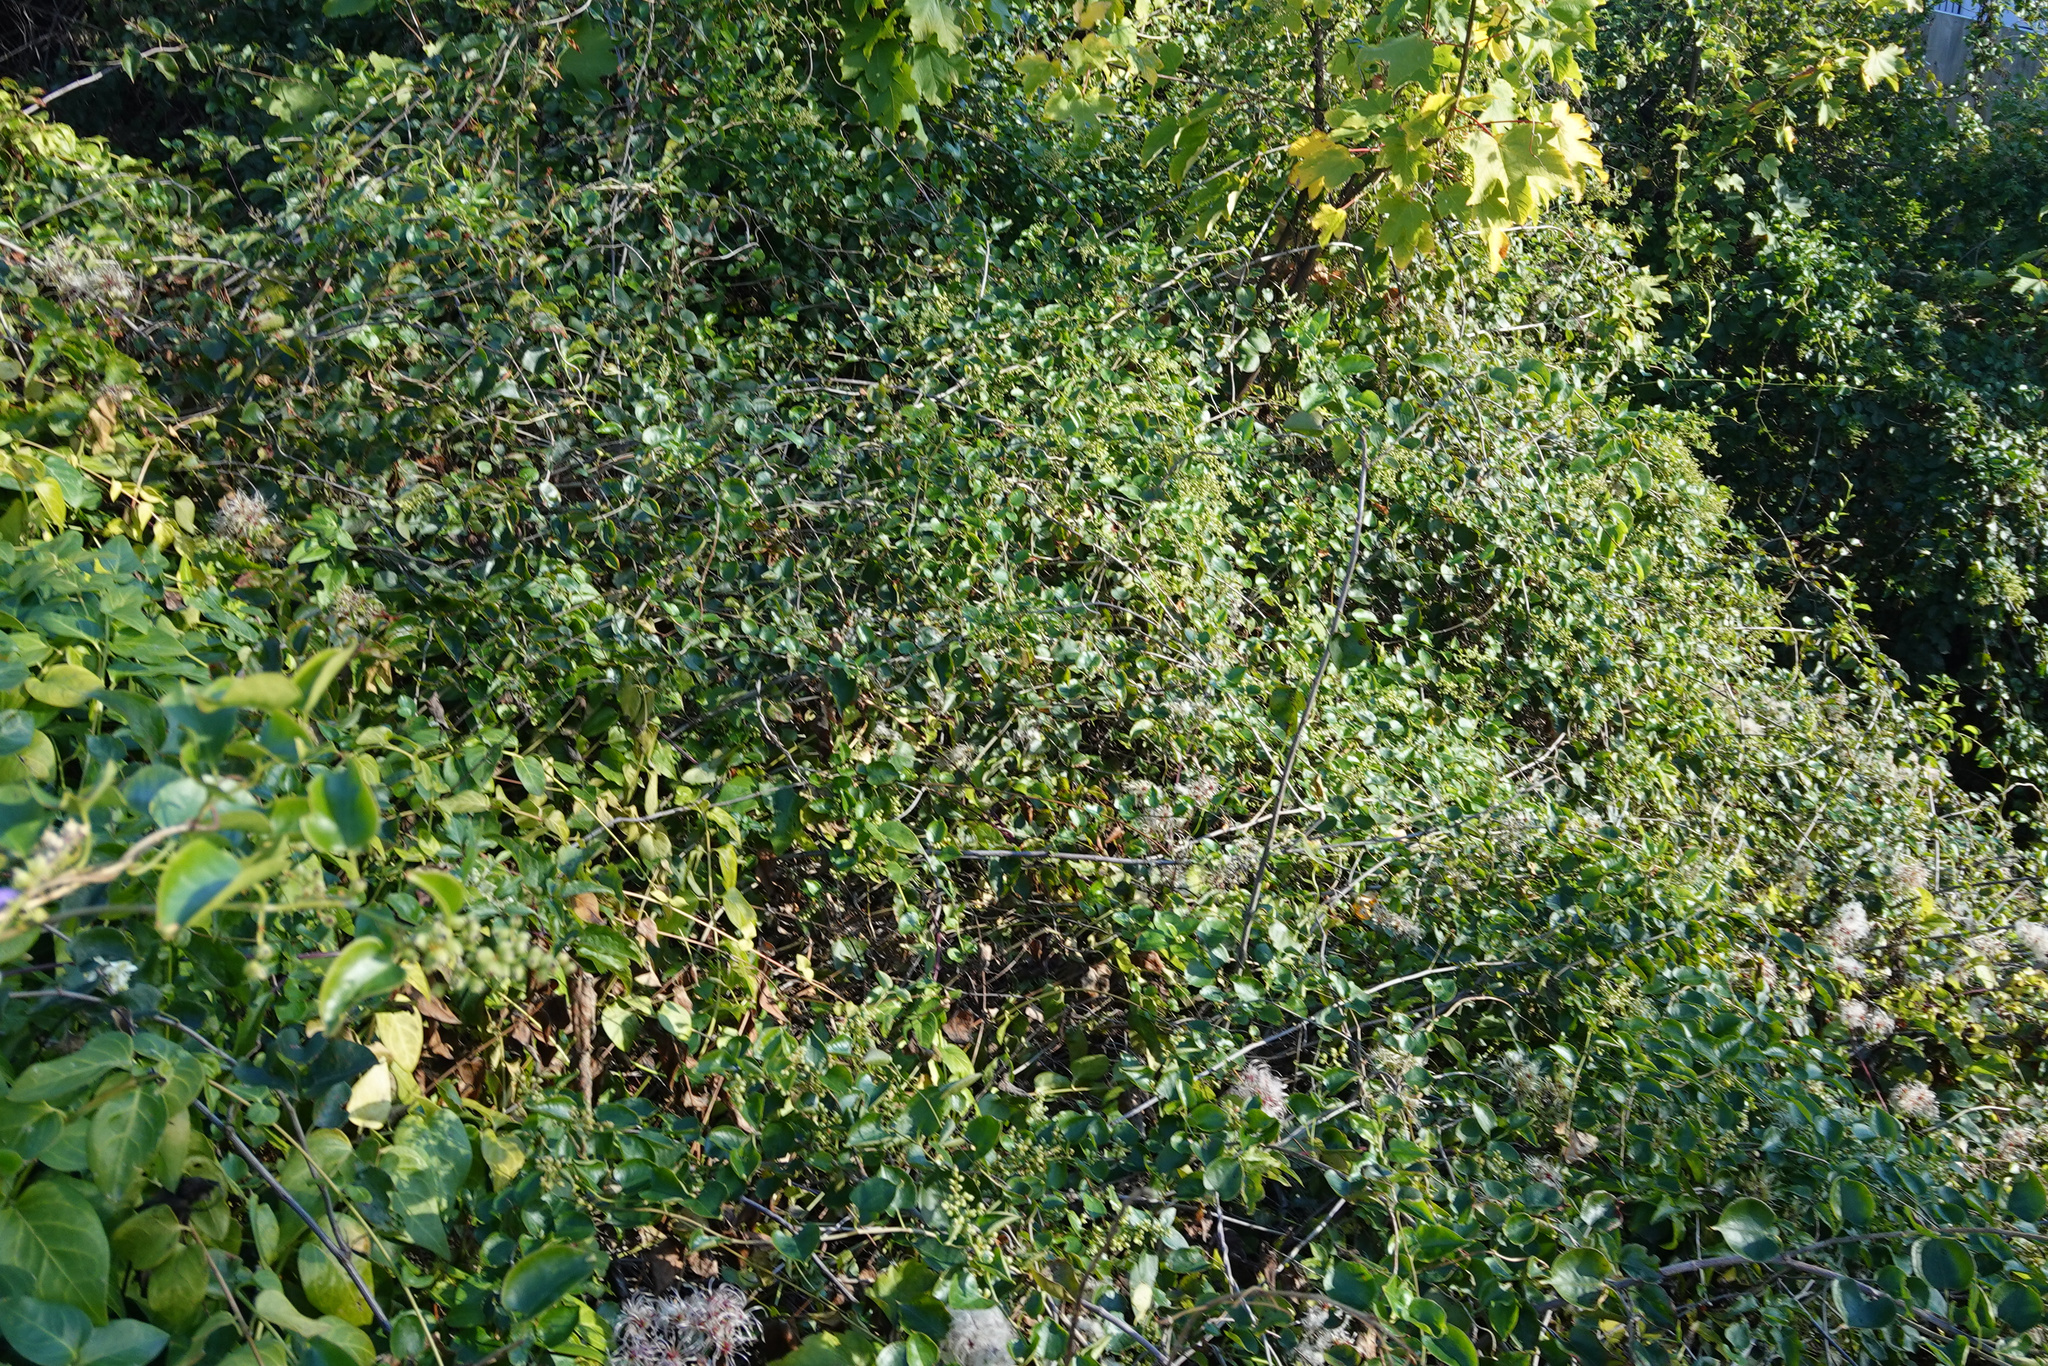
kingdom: Plantae
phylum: Tracheophyta
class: Magnoliopsida
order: Caryophyllales
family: Polygonaceae
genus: Muehlenbeckia
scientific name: Muehlenbeckia australis
